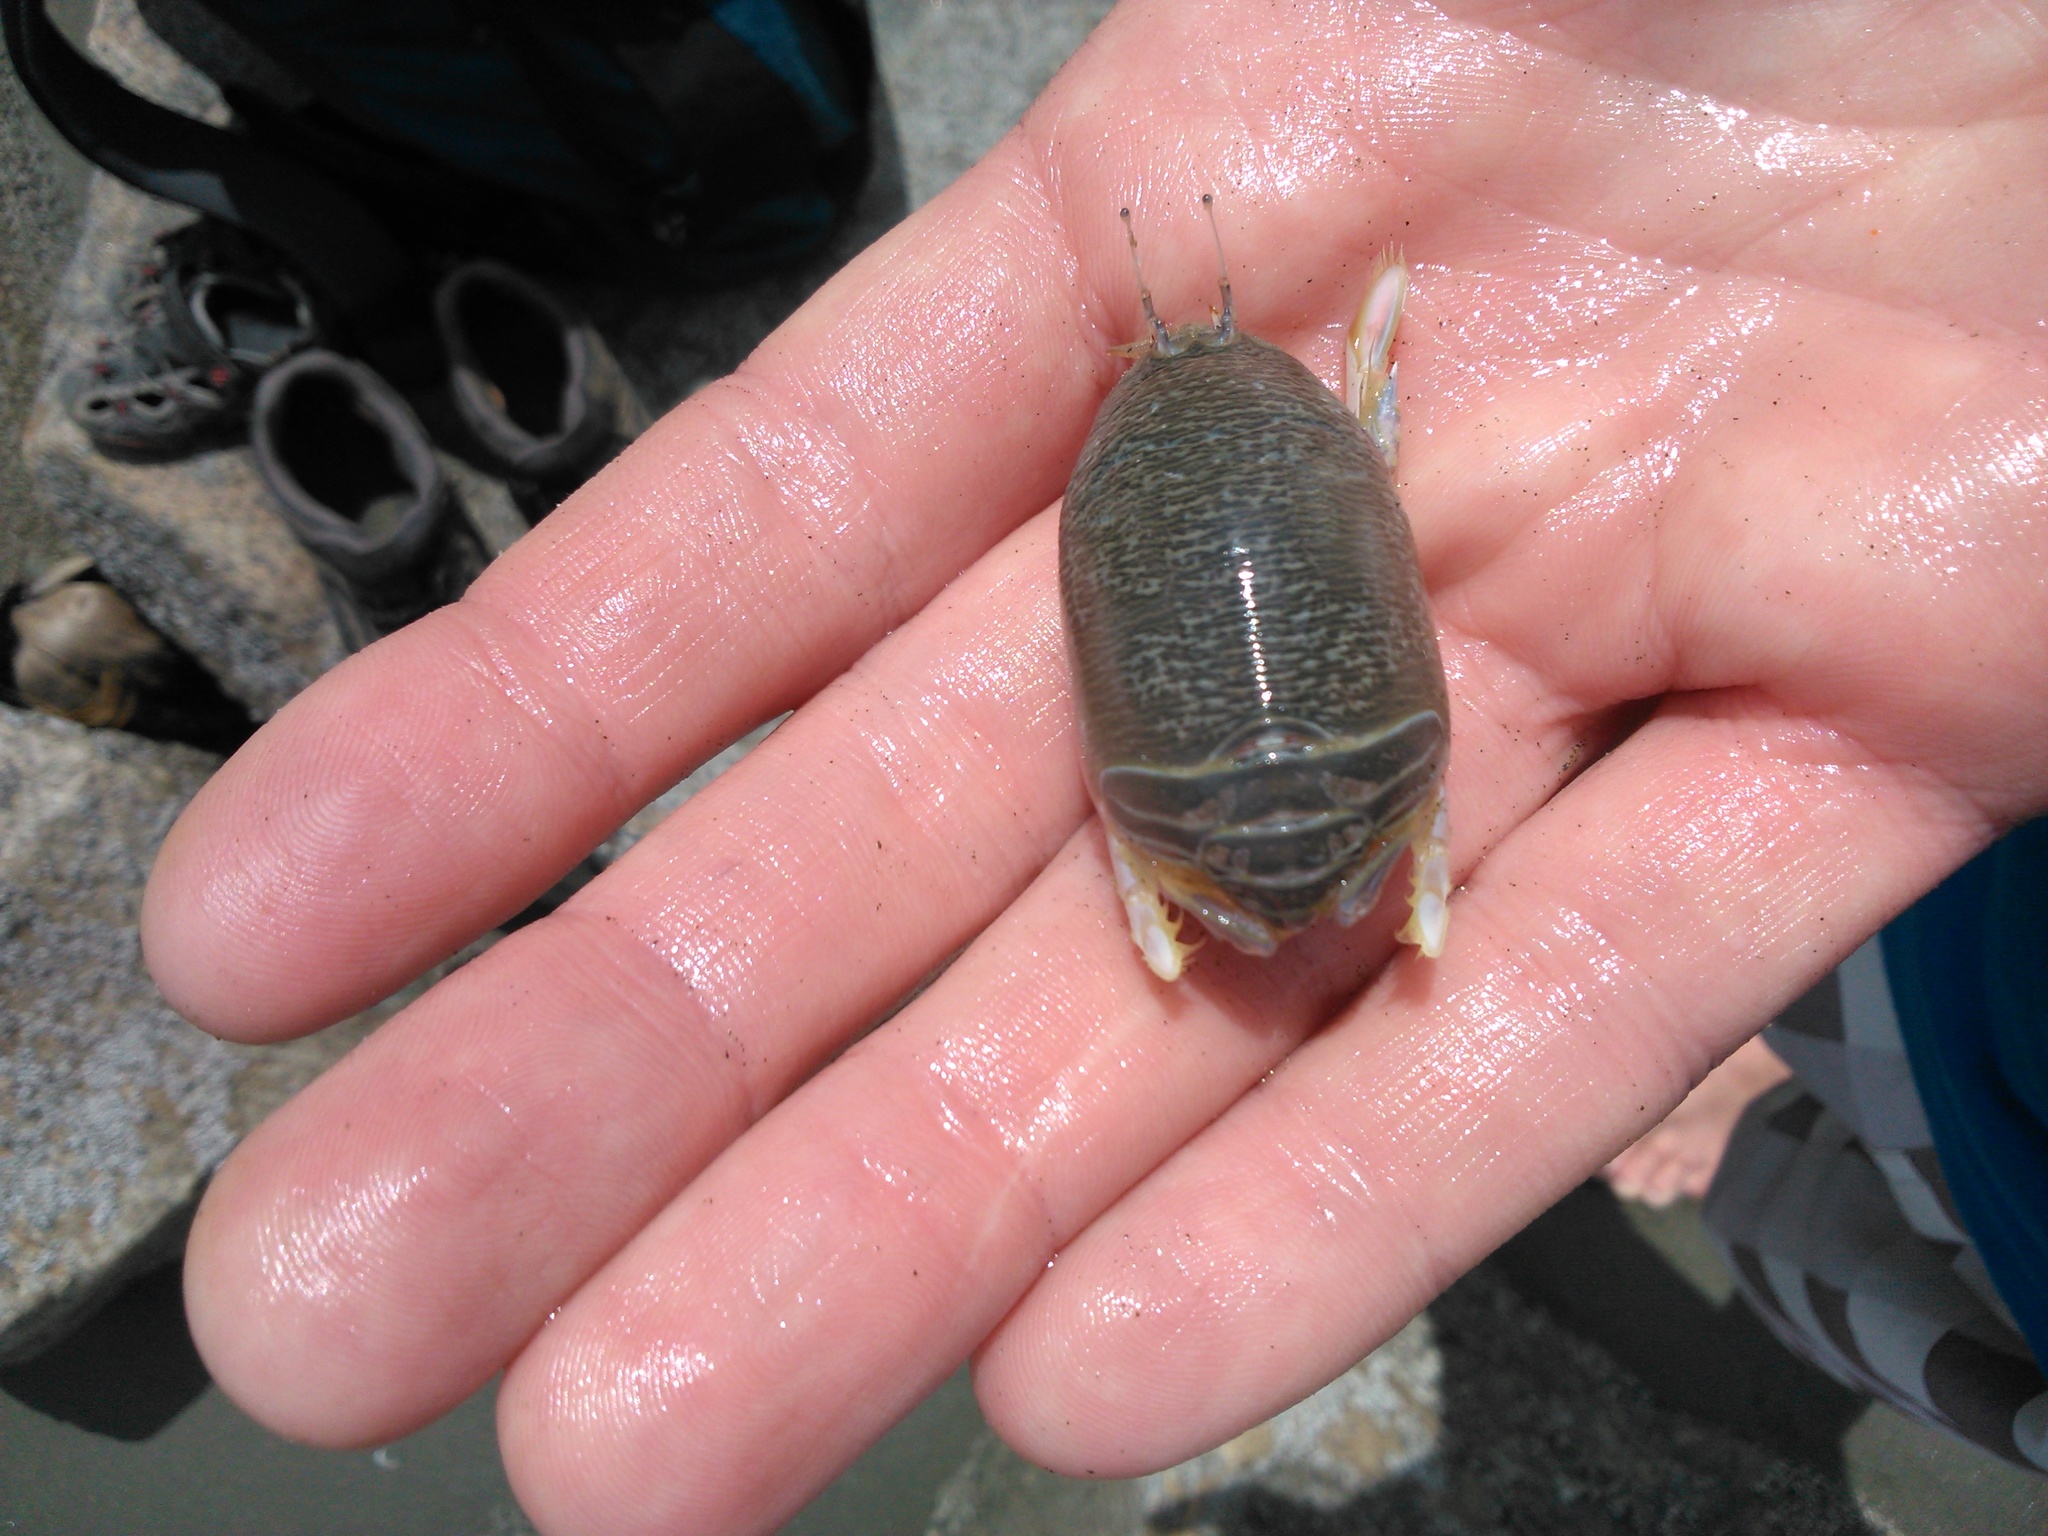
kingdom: Animalia
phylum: Arthropoda
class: Malacostraca
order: Decapoda
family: Hippidae
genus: Emerita
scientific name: Emerita rathbunae
